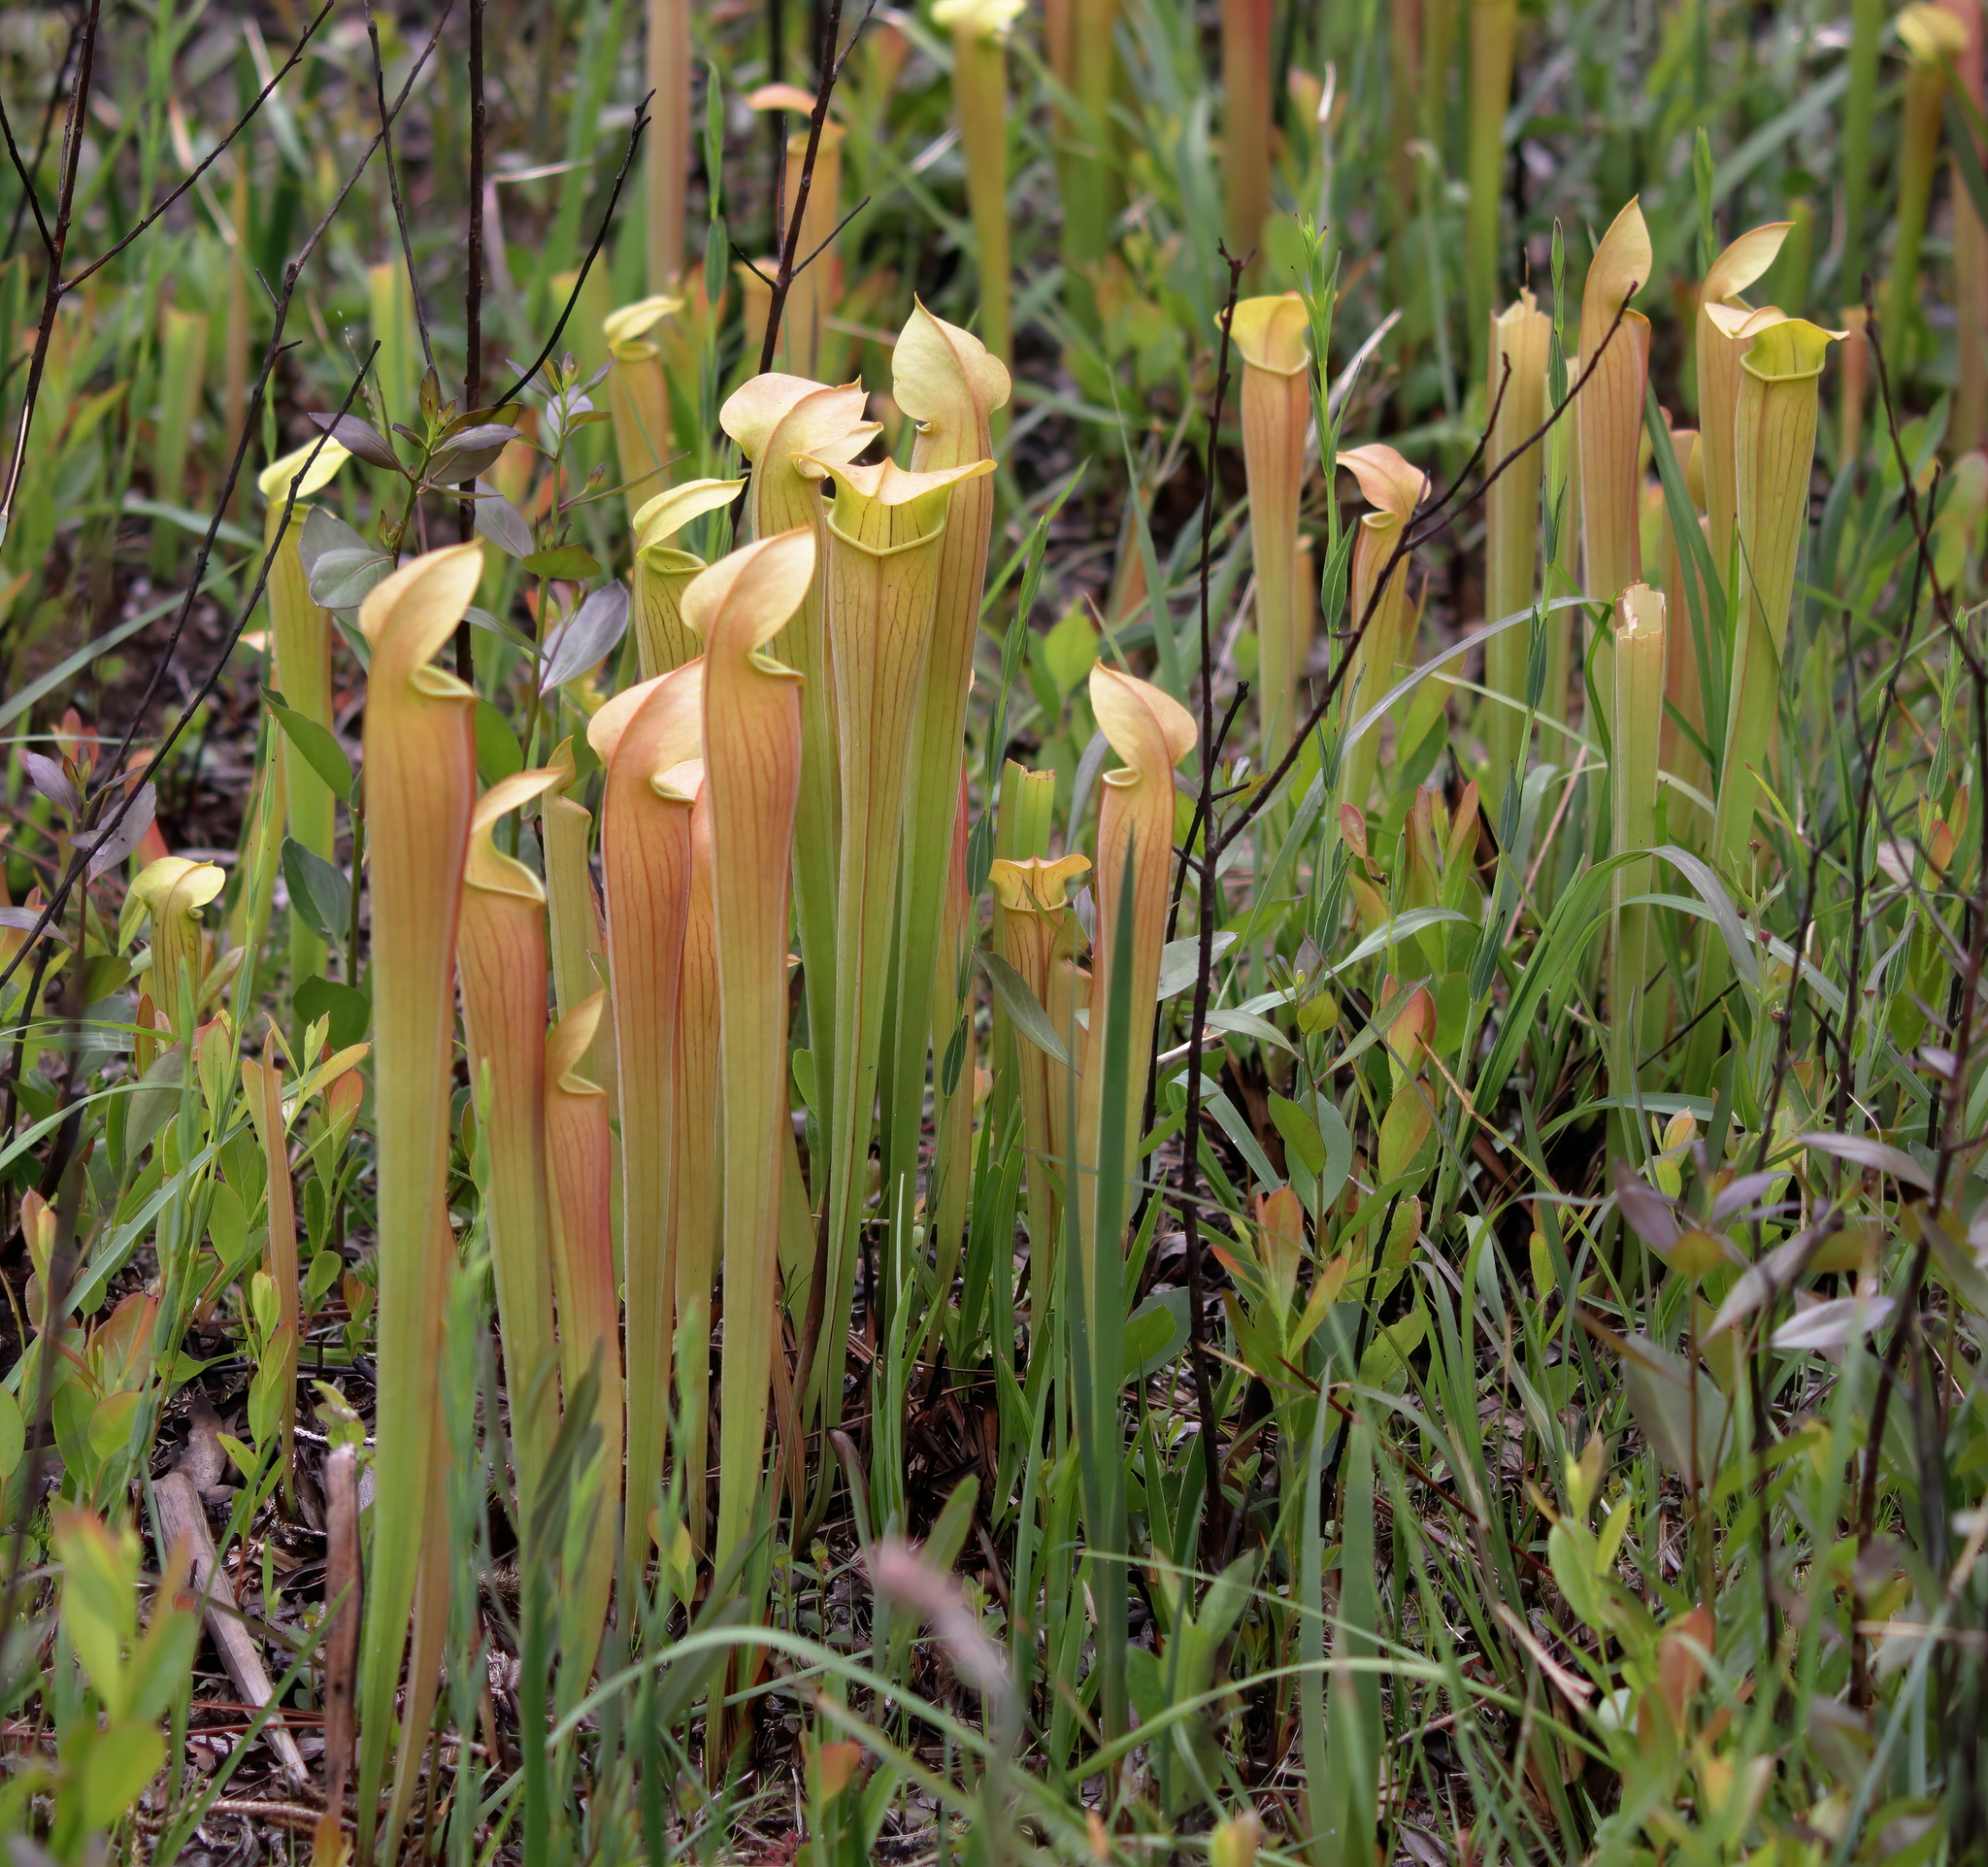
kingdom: Plantae
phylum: Tracheophyta
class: Magnoliopsida
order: Ericales
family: Sarraceniaceae
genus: Sarracenia
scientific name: Sarracenia alata
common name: Yellow trumpets
